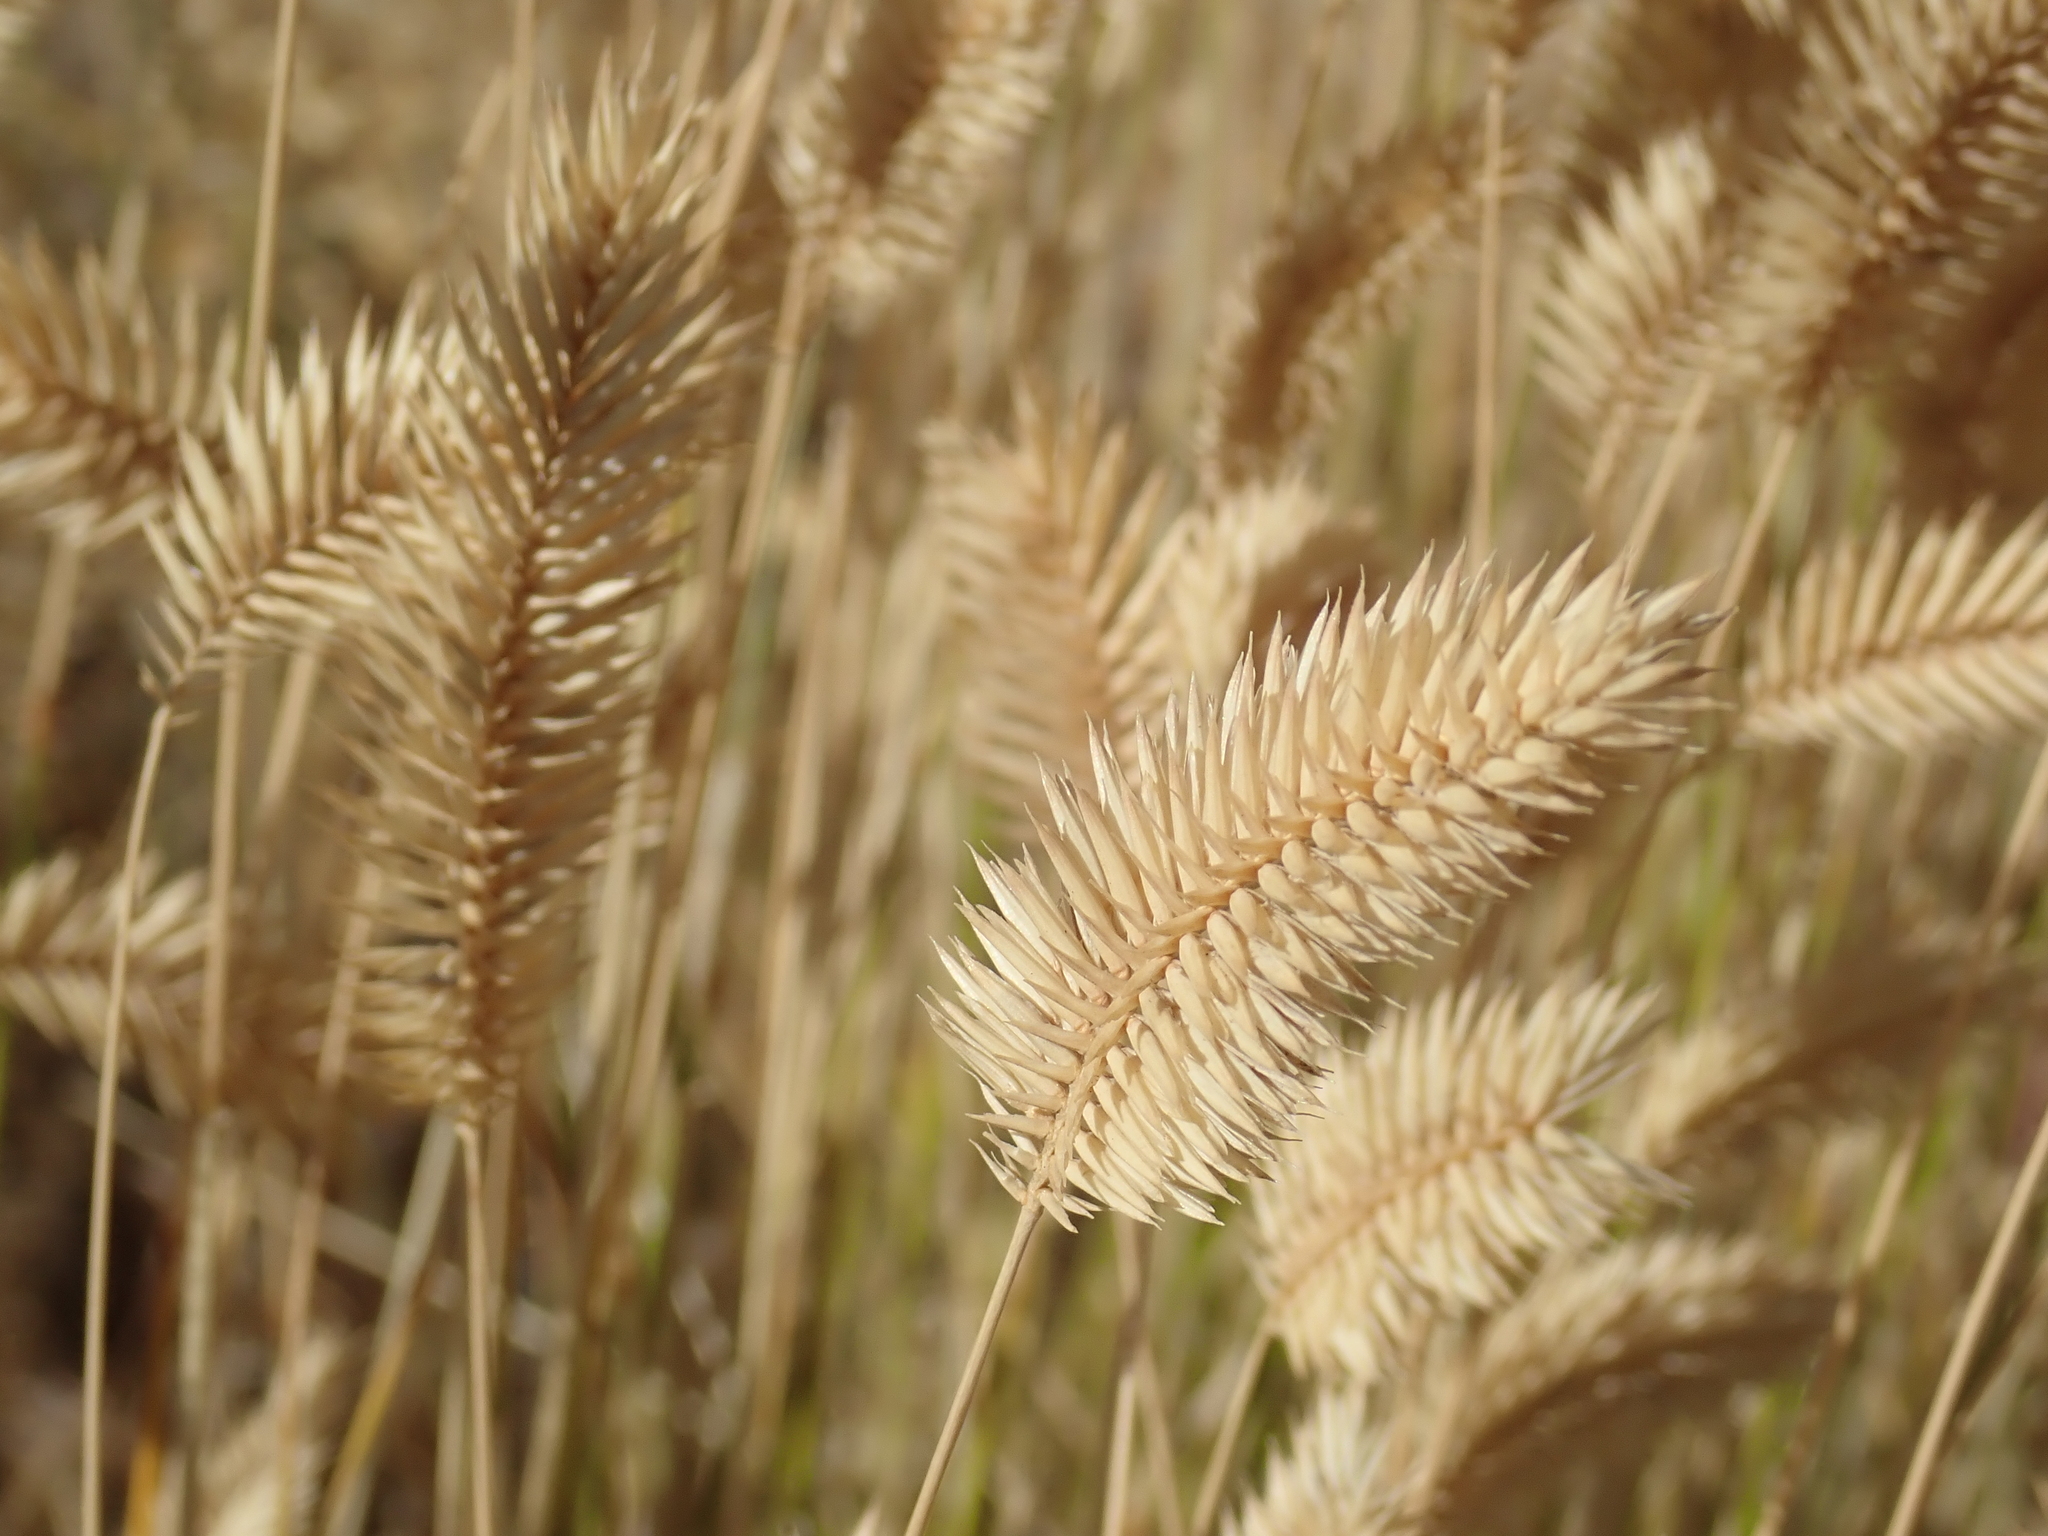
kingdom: Plantae
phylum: Tracheophyta
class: Liliopsida
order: Poales
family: Poaceae
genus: Agropyron
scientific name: Agropyron cristatum
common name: Crested wheatgrass
